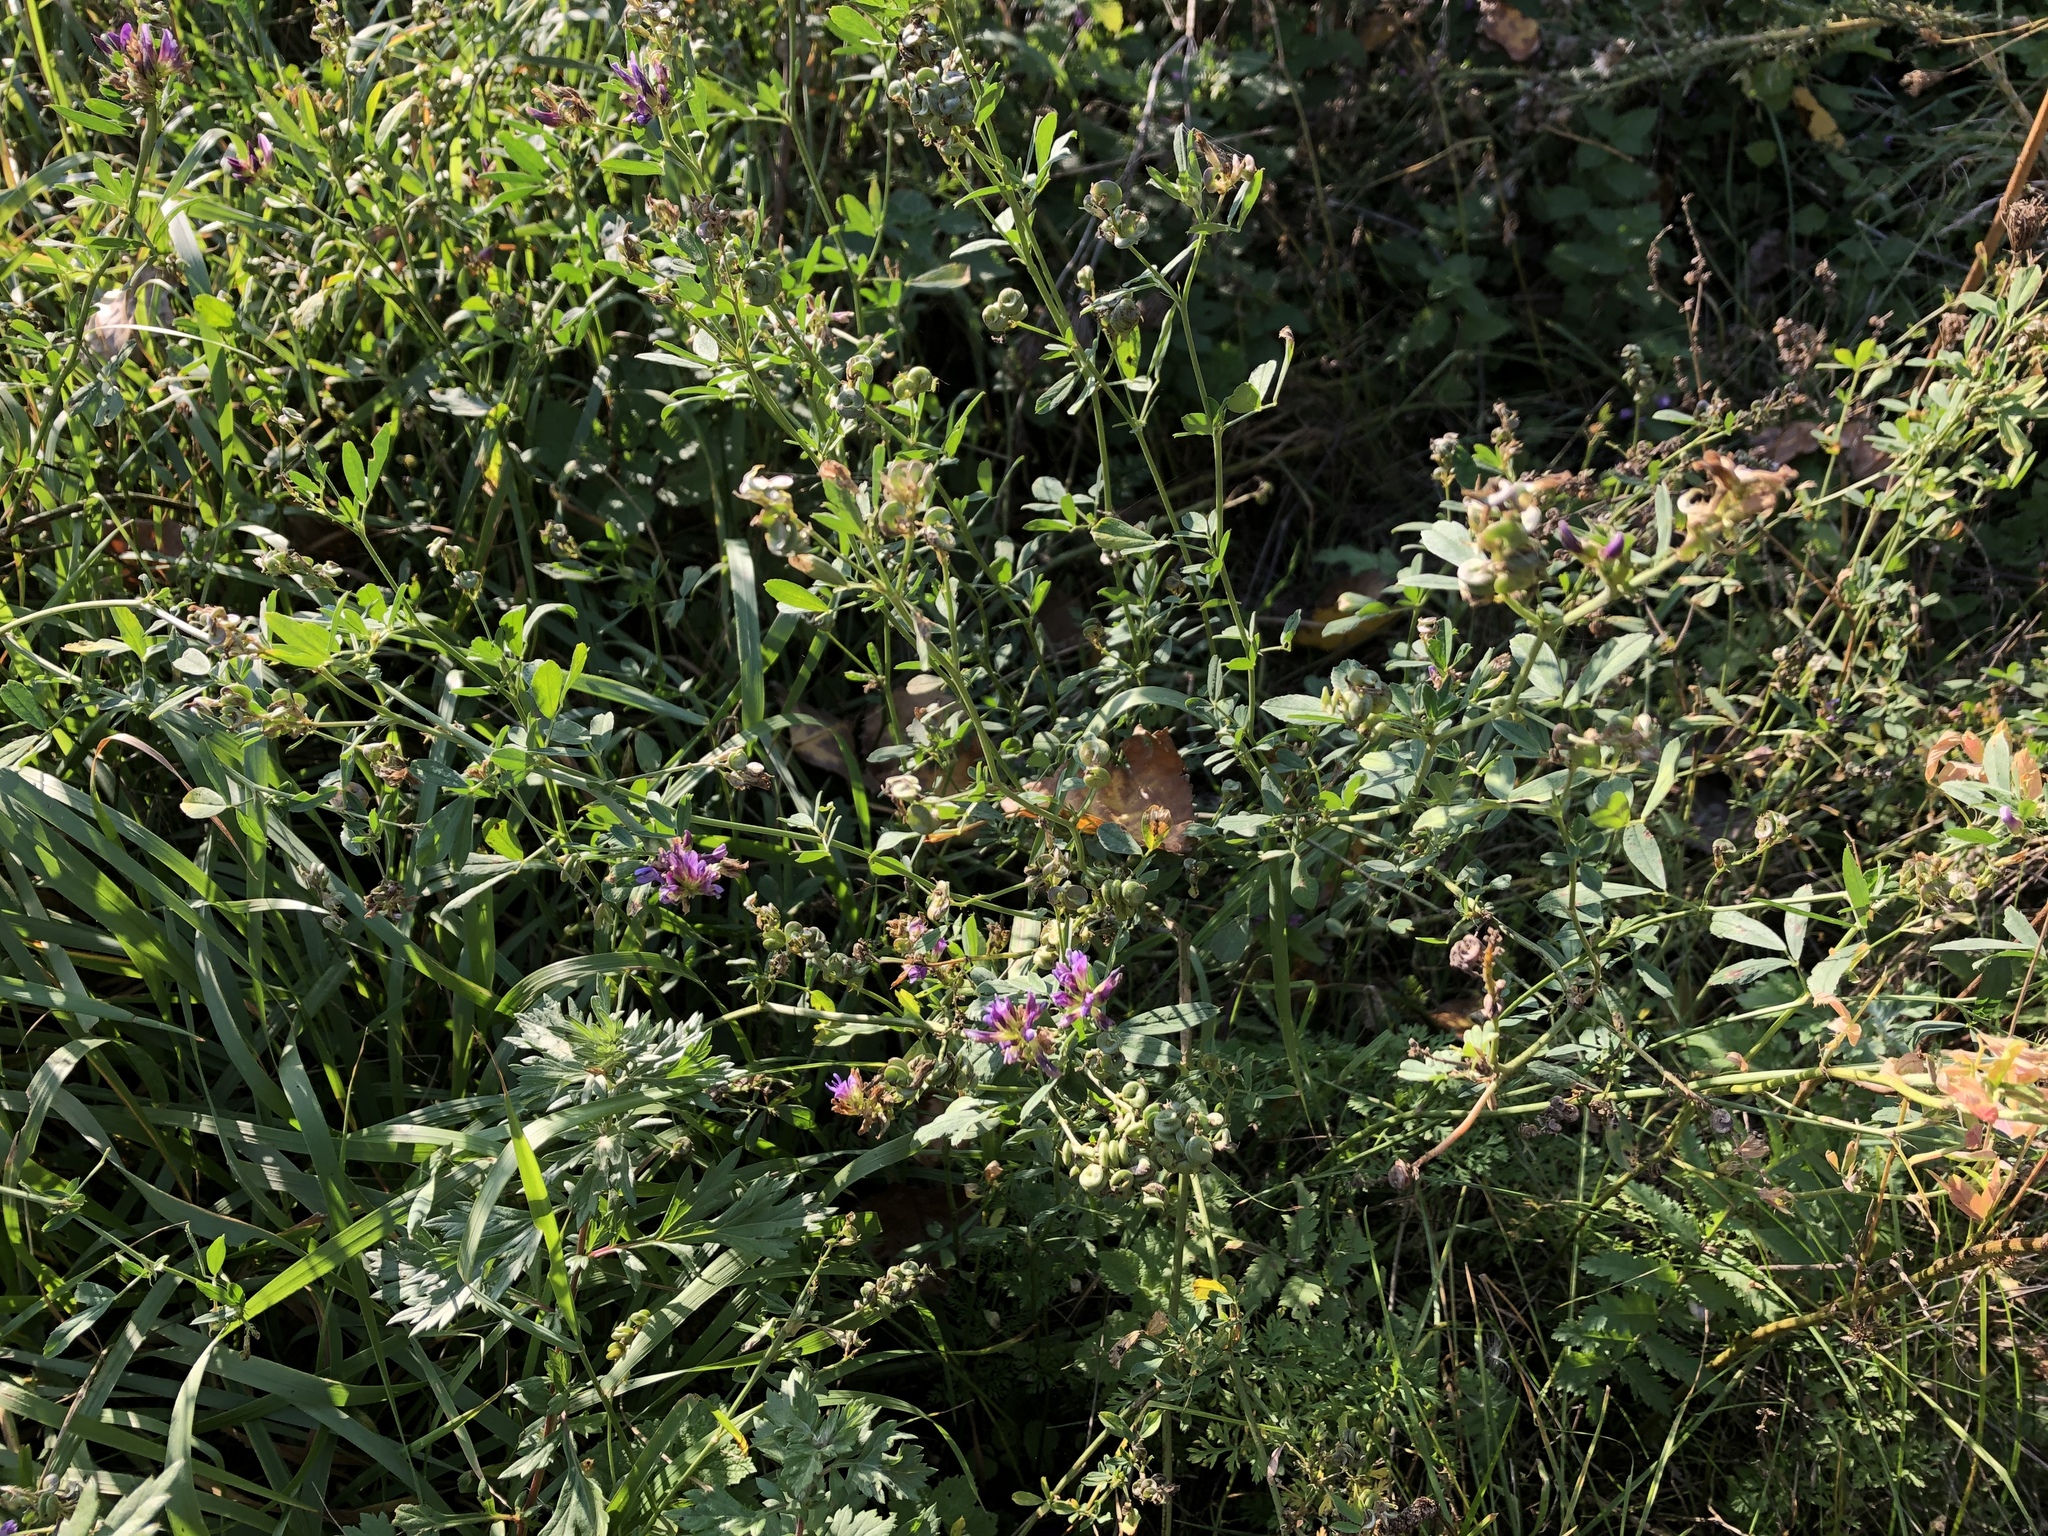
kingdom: Plantae
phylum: Tracheophyta
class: Magnoliopsida
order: Fabales
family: Fabaceae
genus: Medicago
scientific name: Medicago sativa
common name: Alfalfa
